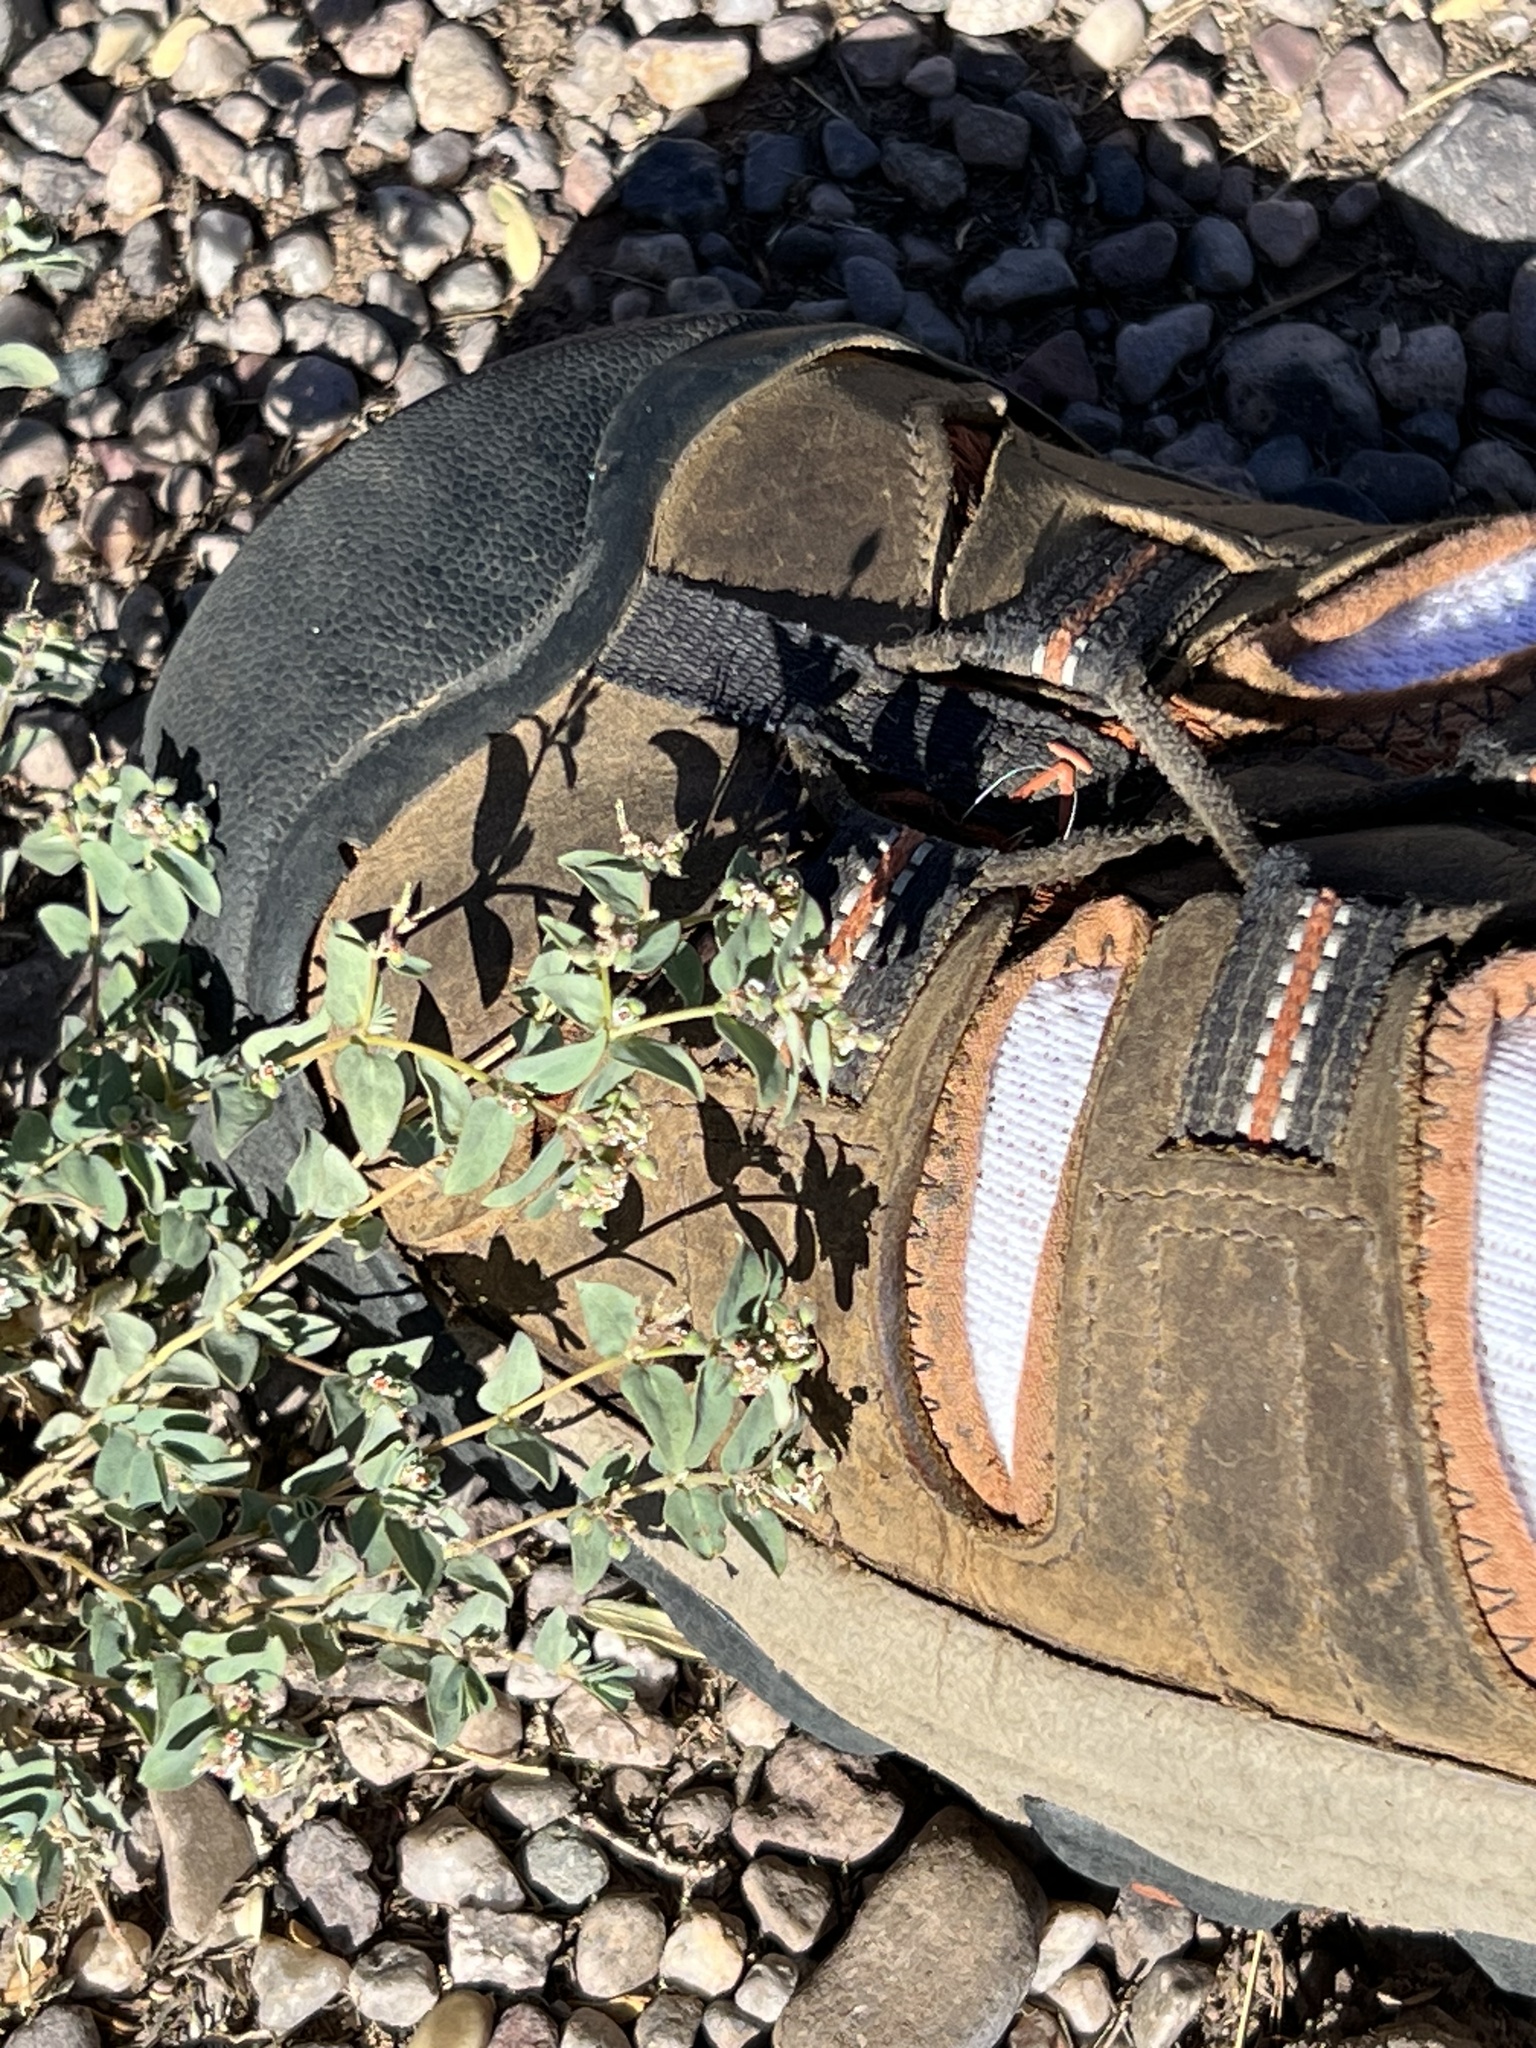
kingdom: Plantae
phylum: Tracheophyta
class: Magnoliopsida
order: Malpighiales
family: Euphorbiaceae
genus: Euphorbia
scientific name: Euphorbia capitellata
